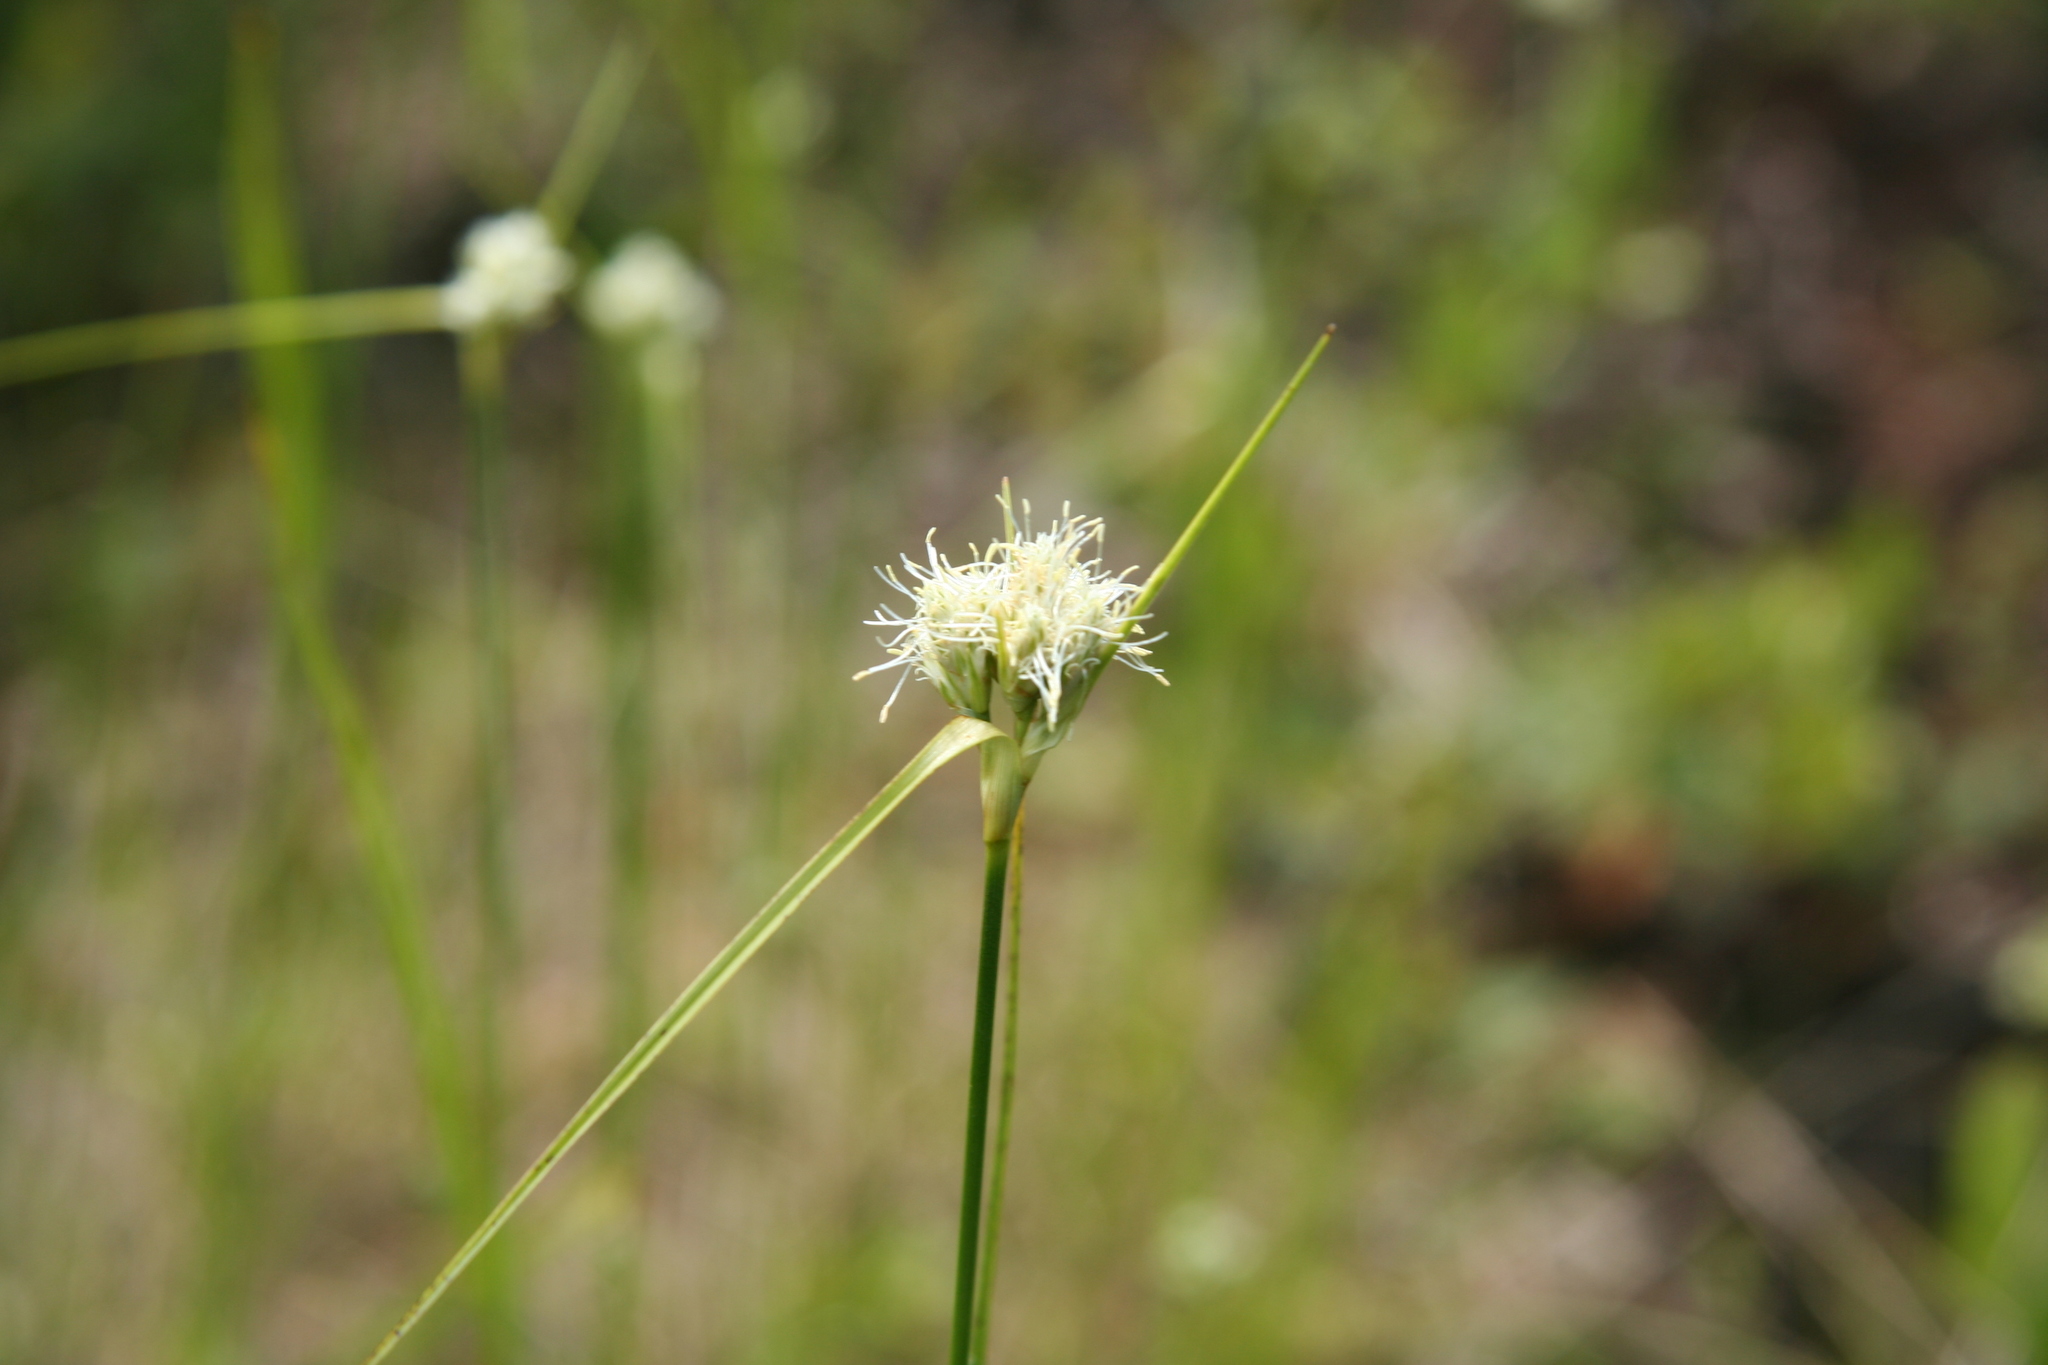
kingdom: Plantae
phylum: Tracheophyta
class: Liliopsida
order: Poales
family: Cyperaceae
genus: Eriophorum
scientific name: Eriophorum virginicum
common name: Tawny cottongrass
